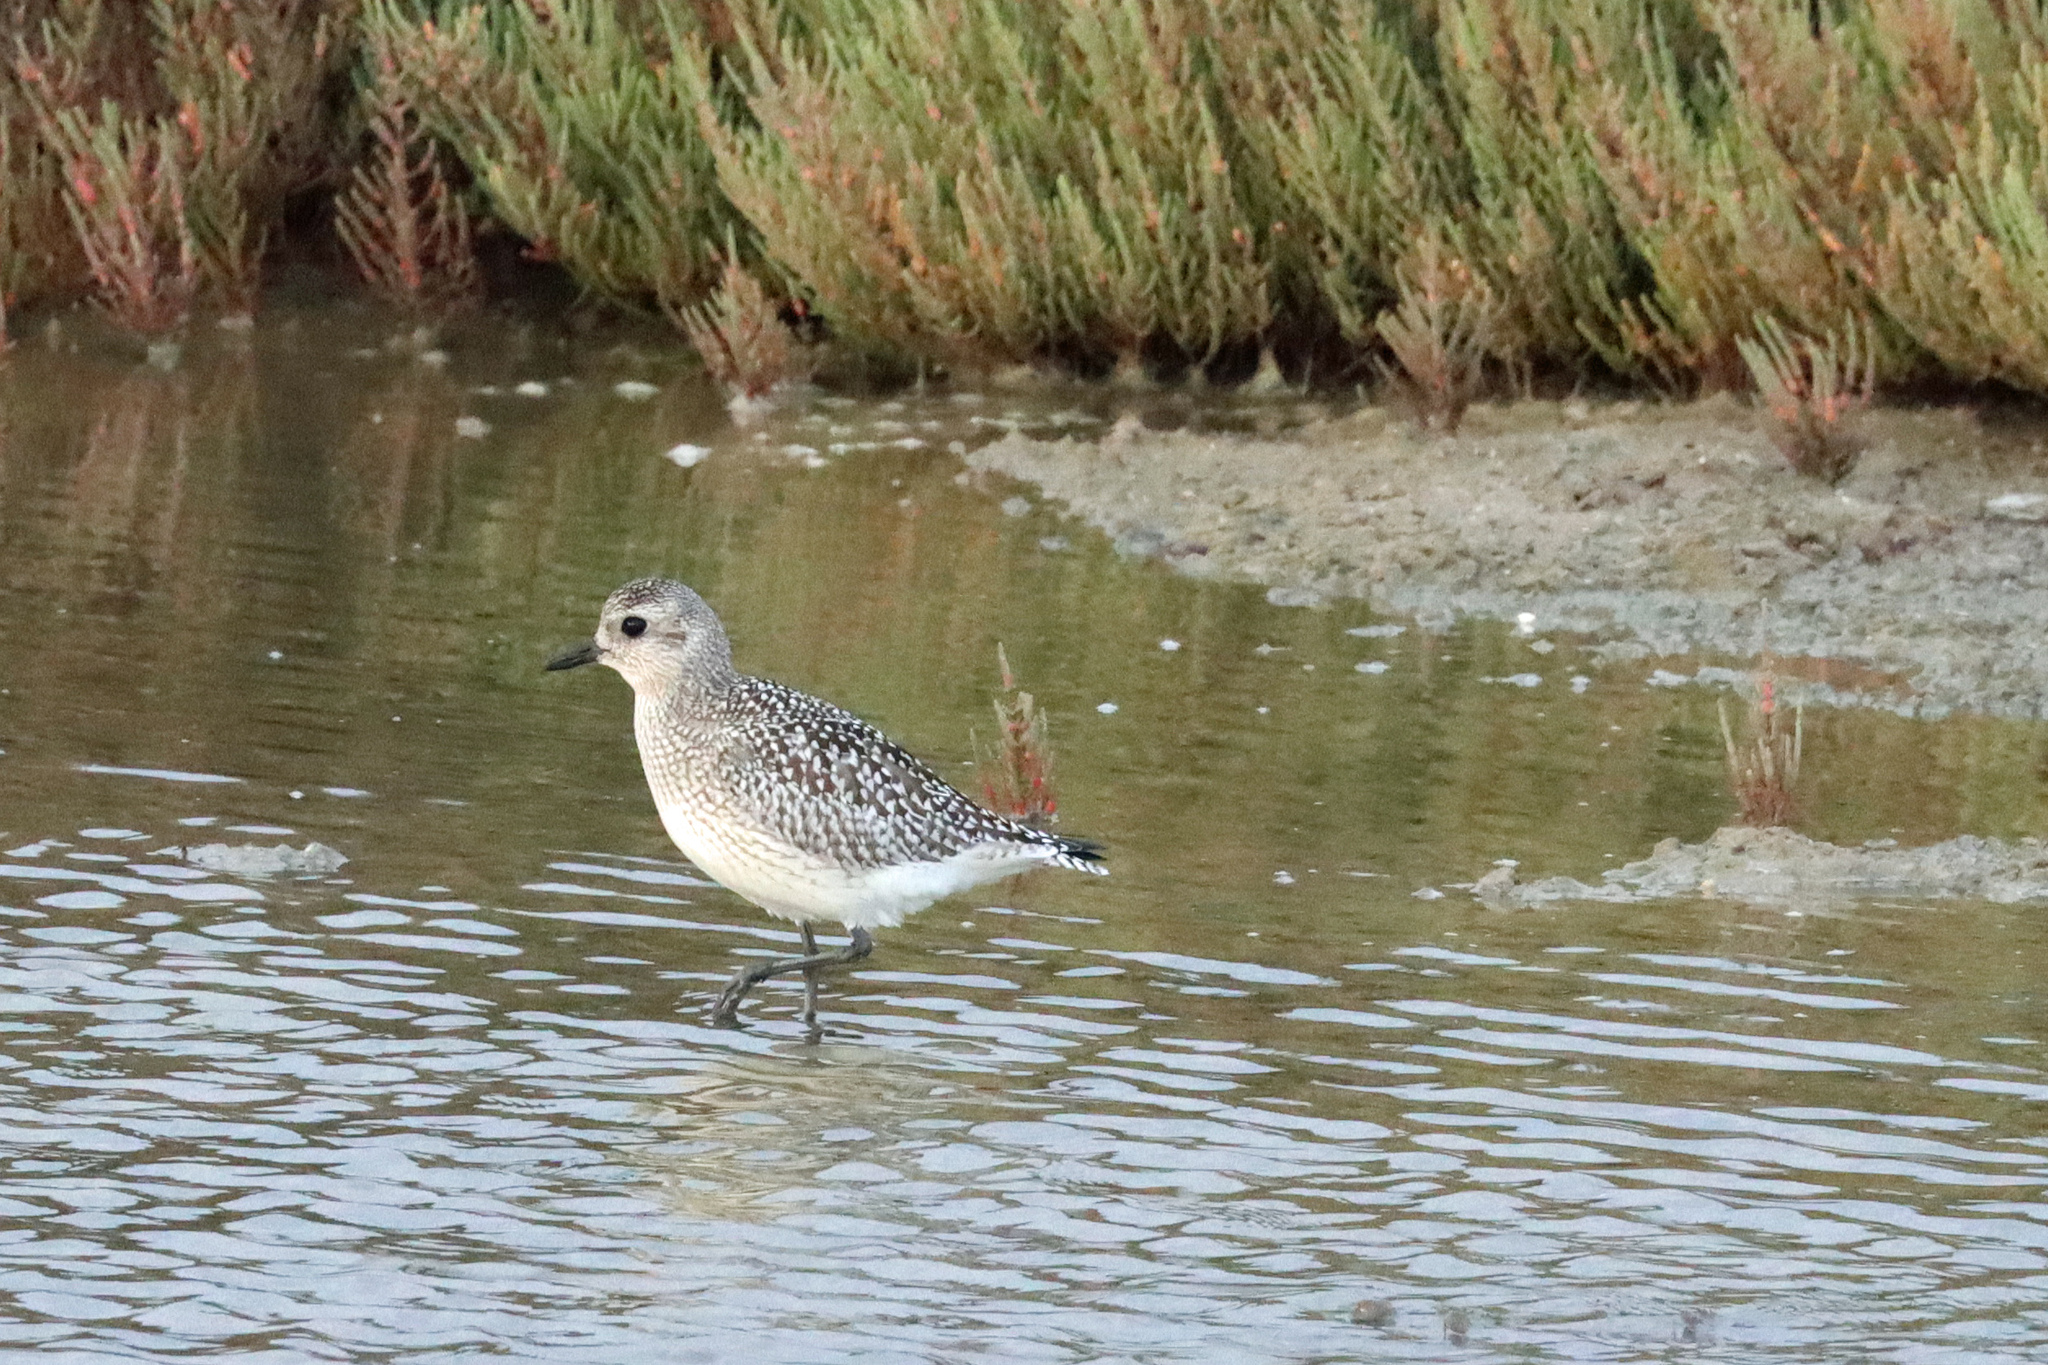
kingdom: Animalia
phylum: Chordata
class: Aves
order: Charadriiformes
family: Charadriidae
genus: Pluvialis
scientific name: Pluvialis squatarola
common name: Grey plover
